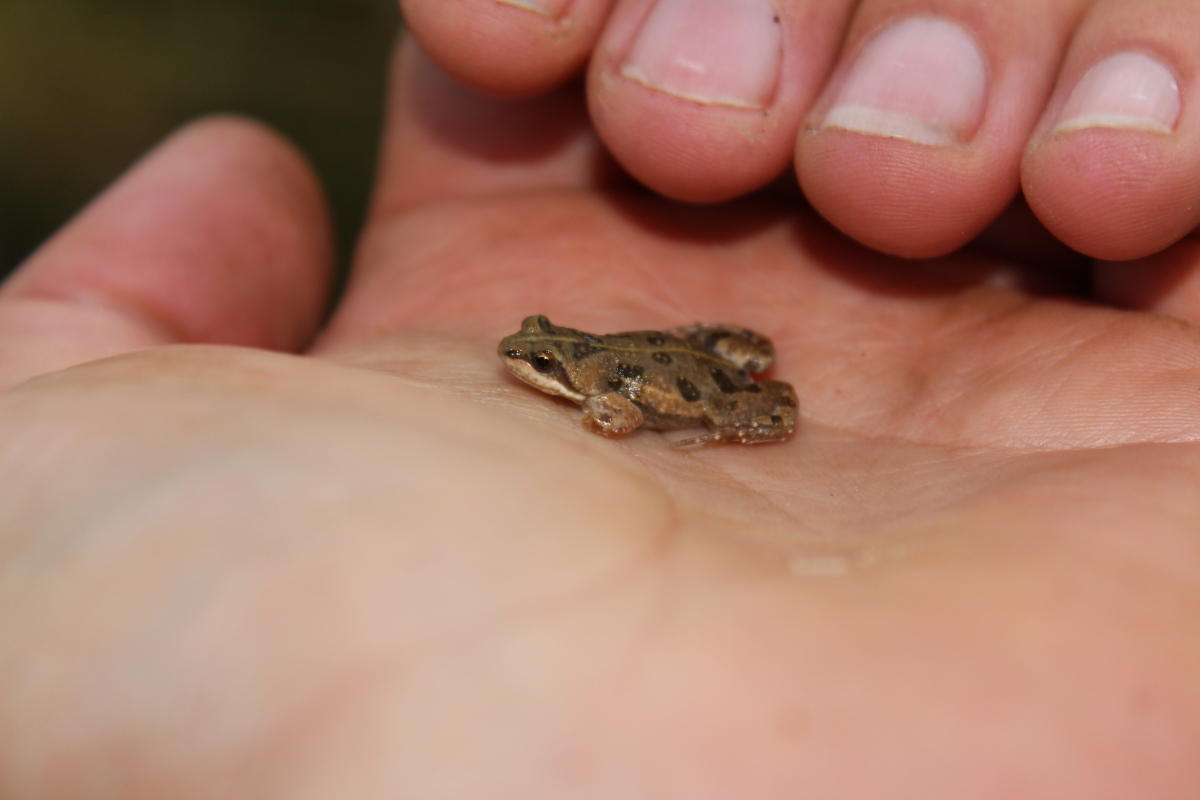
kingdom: Animalia
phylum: Chordata
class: Amphibia
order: Anura
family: Pyxicephalidae
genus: Cacosternum
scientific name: Cacosternum boettgeri
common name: Boettger's frog
